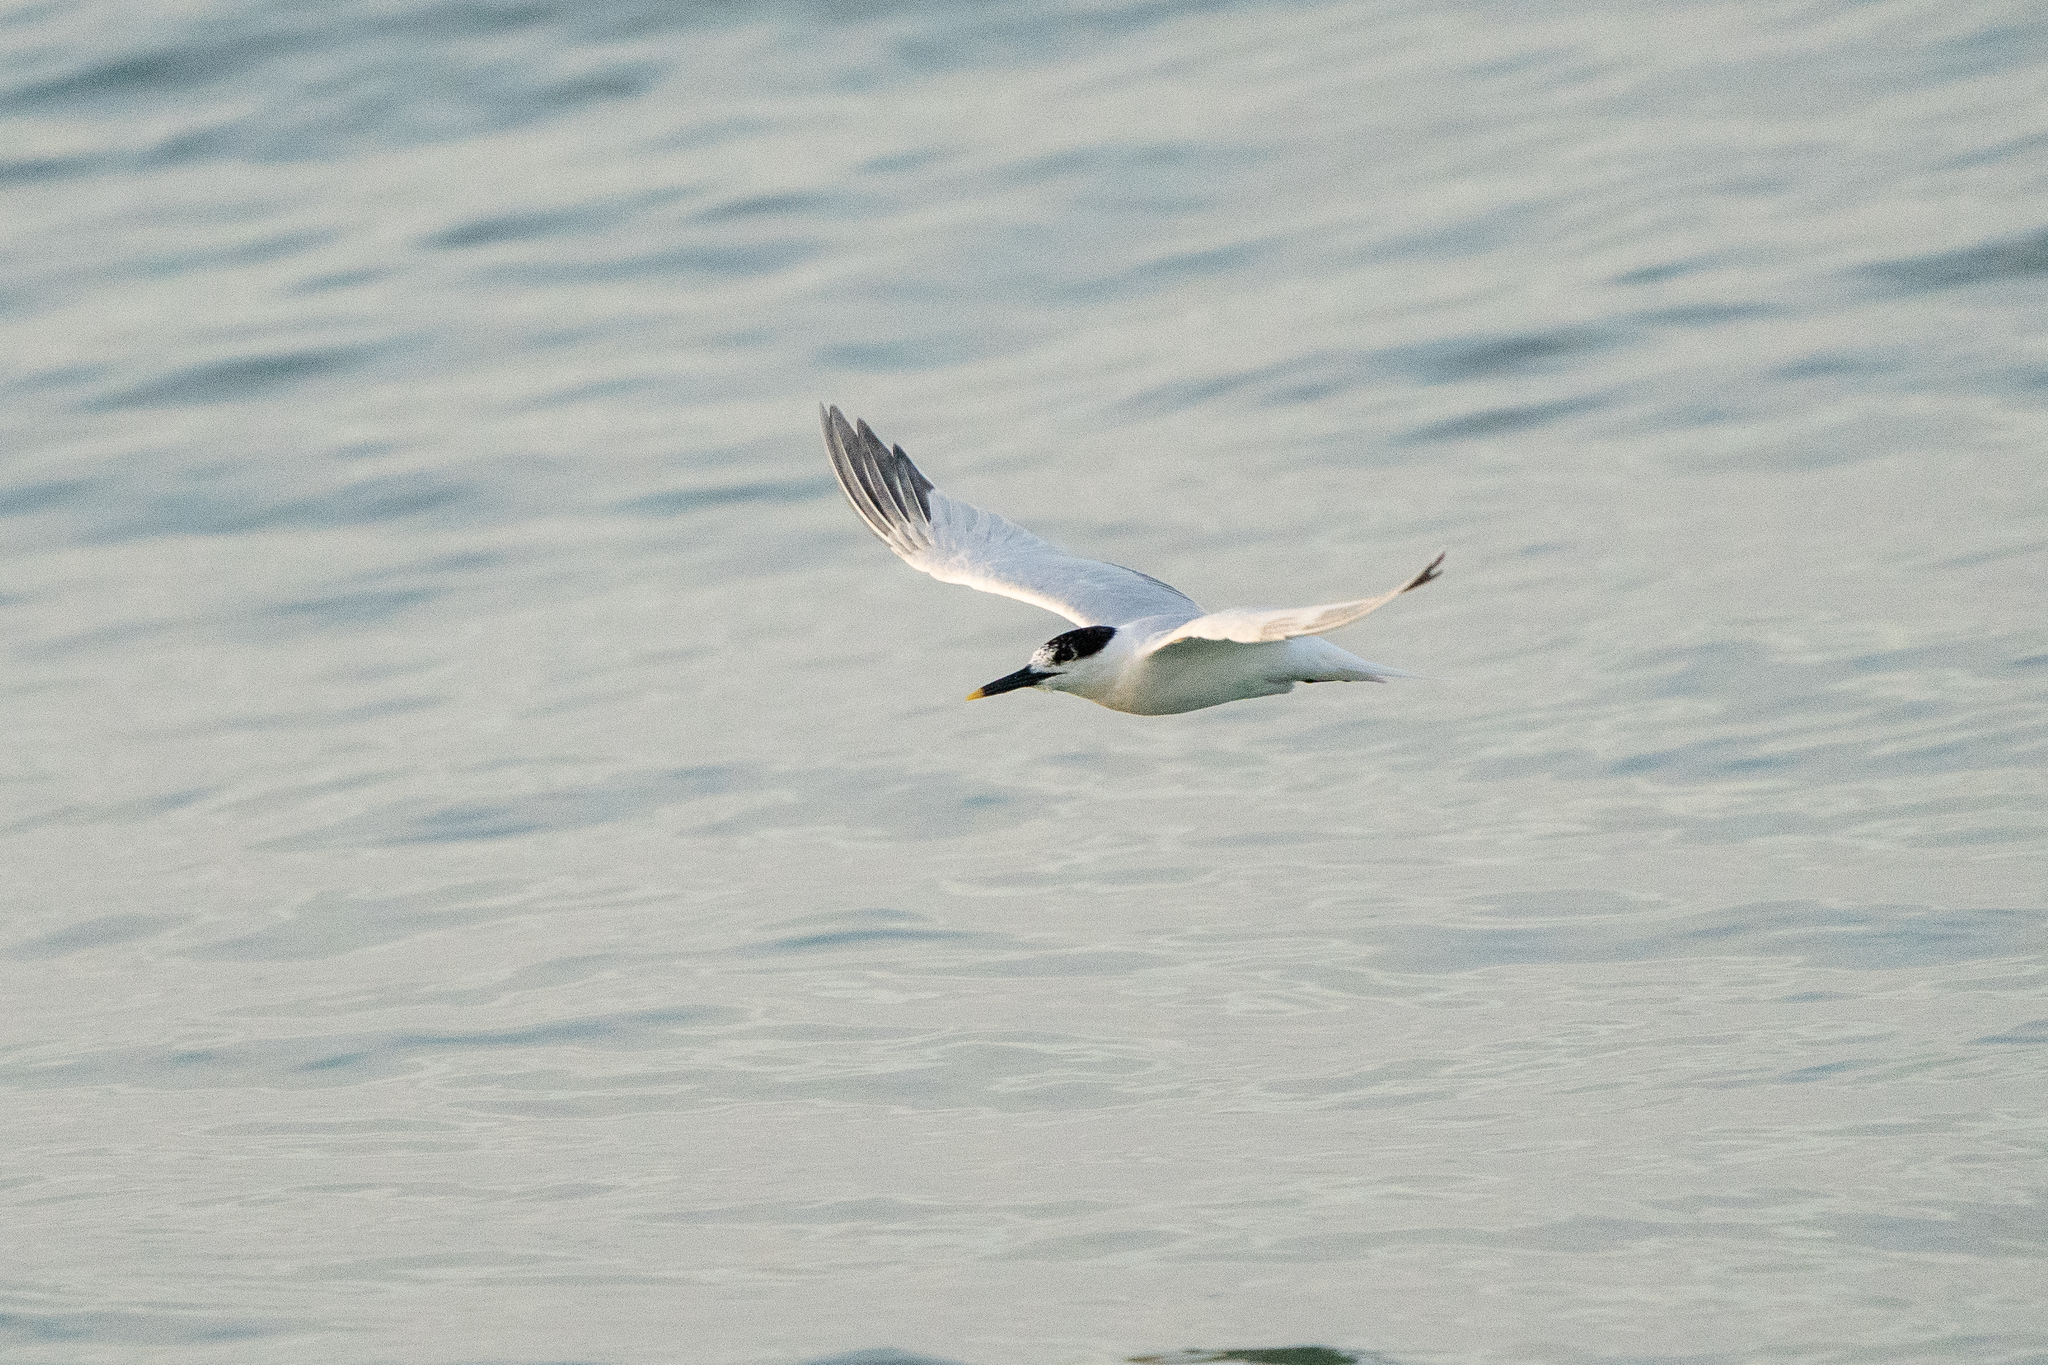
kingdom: Animalia
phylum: Chordata
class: Aves
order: Charadriiformes
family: Laridae
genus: Thalasseus
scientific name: Thalasseus sandvicensis
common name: Sandwich tern
